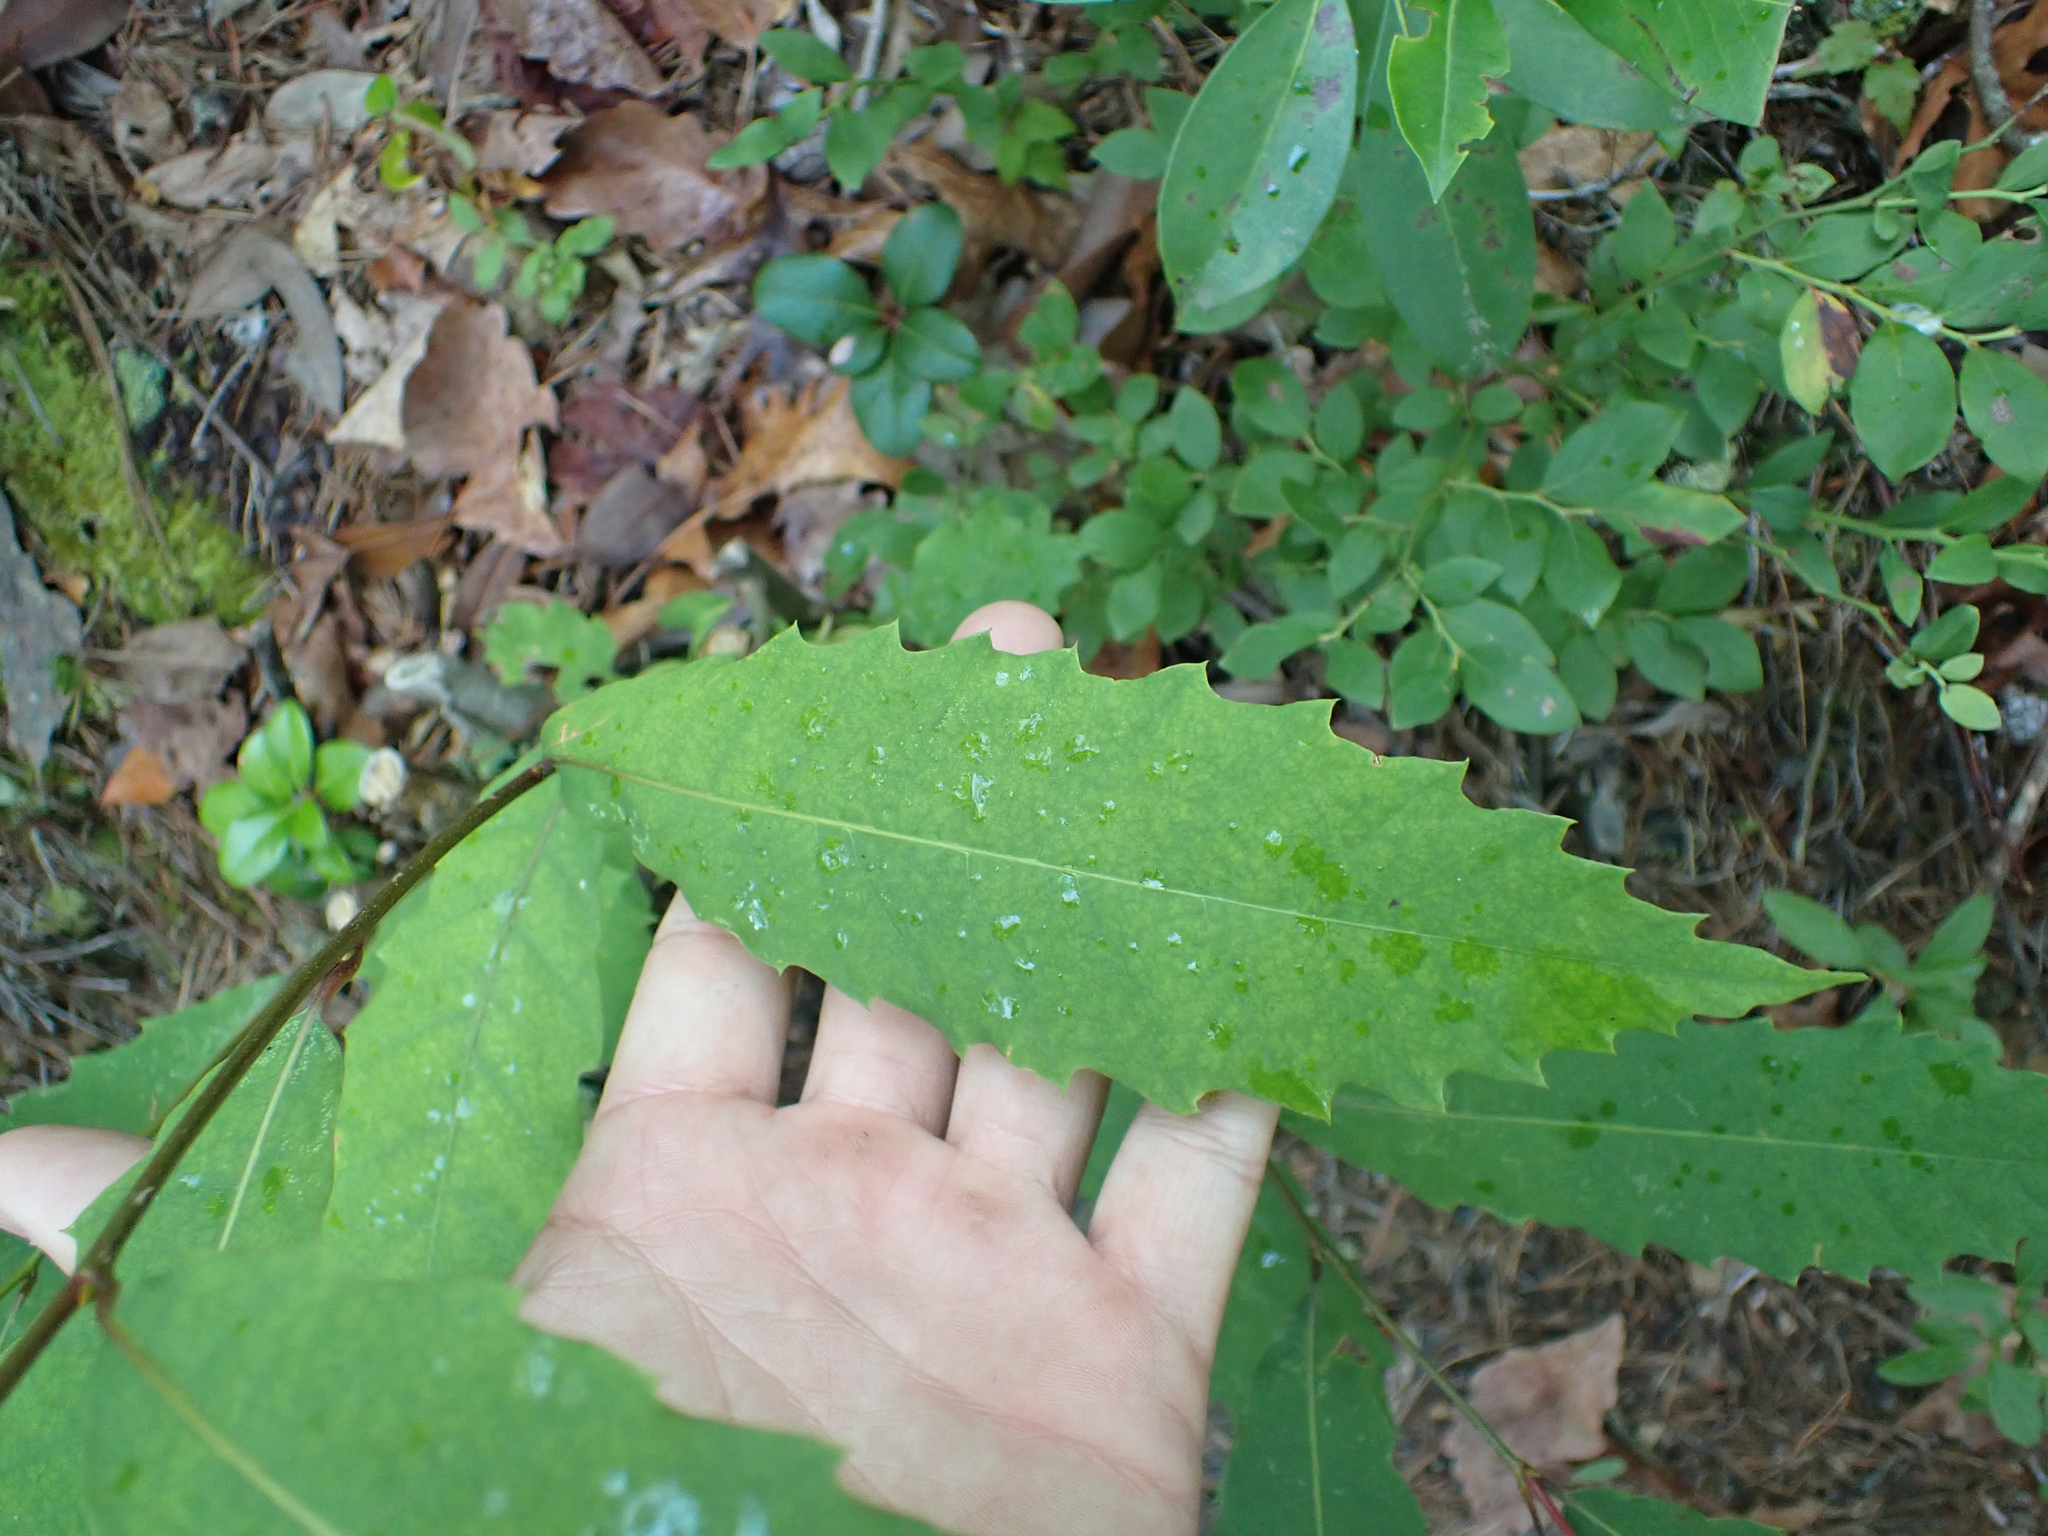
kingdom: Plantae
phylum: Tracheophyta
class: Magnoliopsida
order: Fagales
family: Fagaceae
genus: Castanea
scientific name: Castanea dentata
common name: American chestnut
